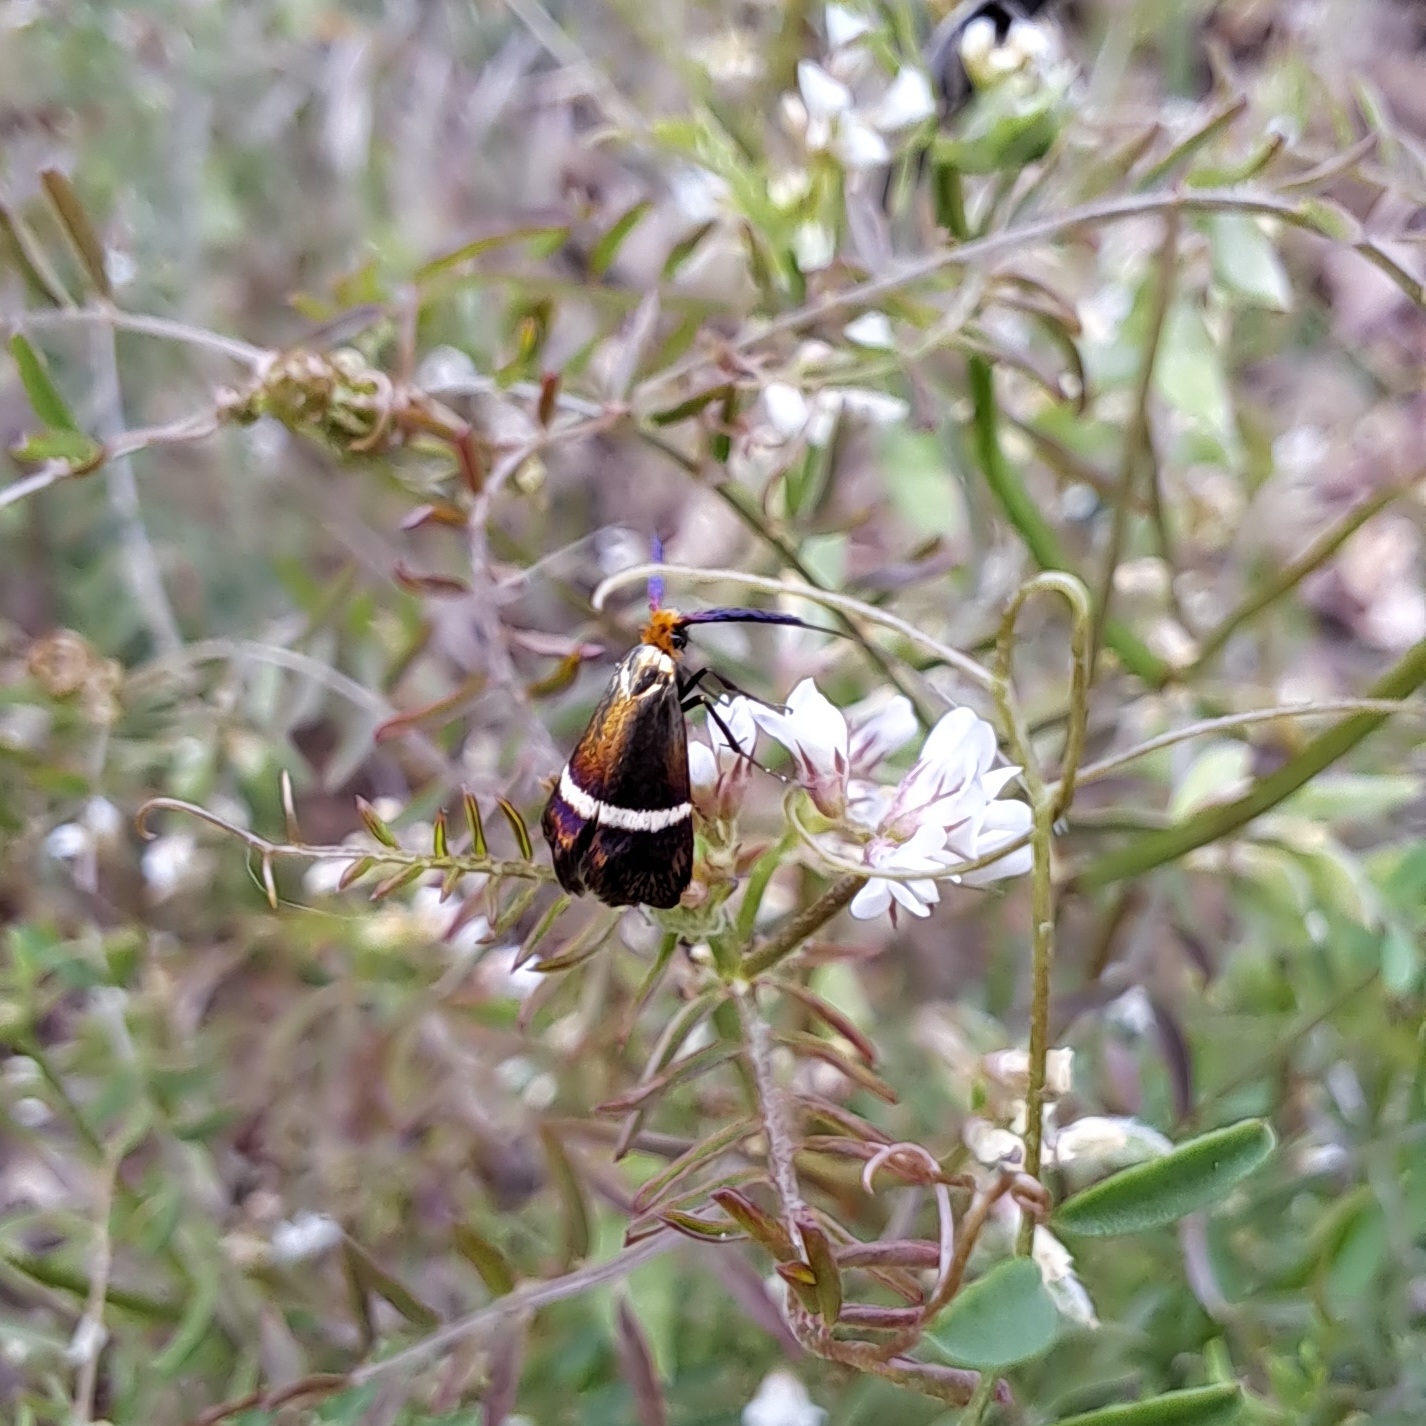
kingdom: Animalia
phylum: Arthropoda
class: Insecta
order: Lepidoptera
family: Adelidae
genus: Adela
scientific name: Adela australis
